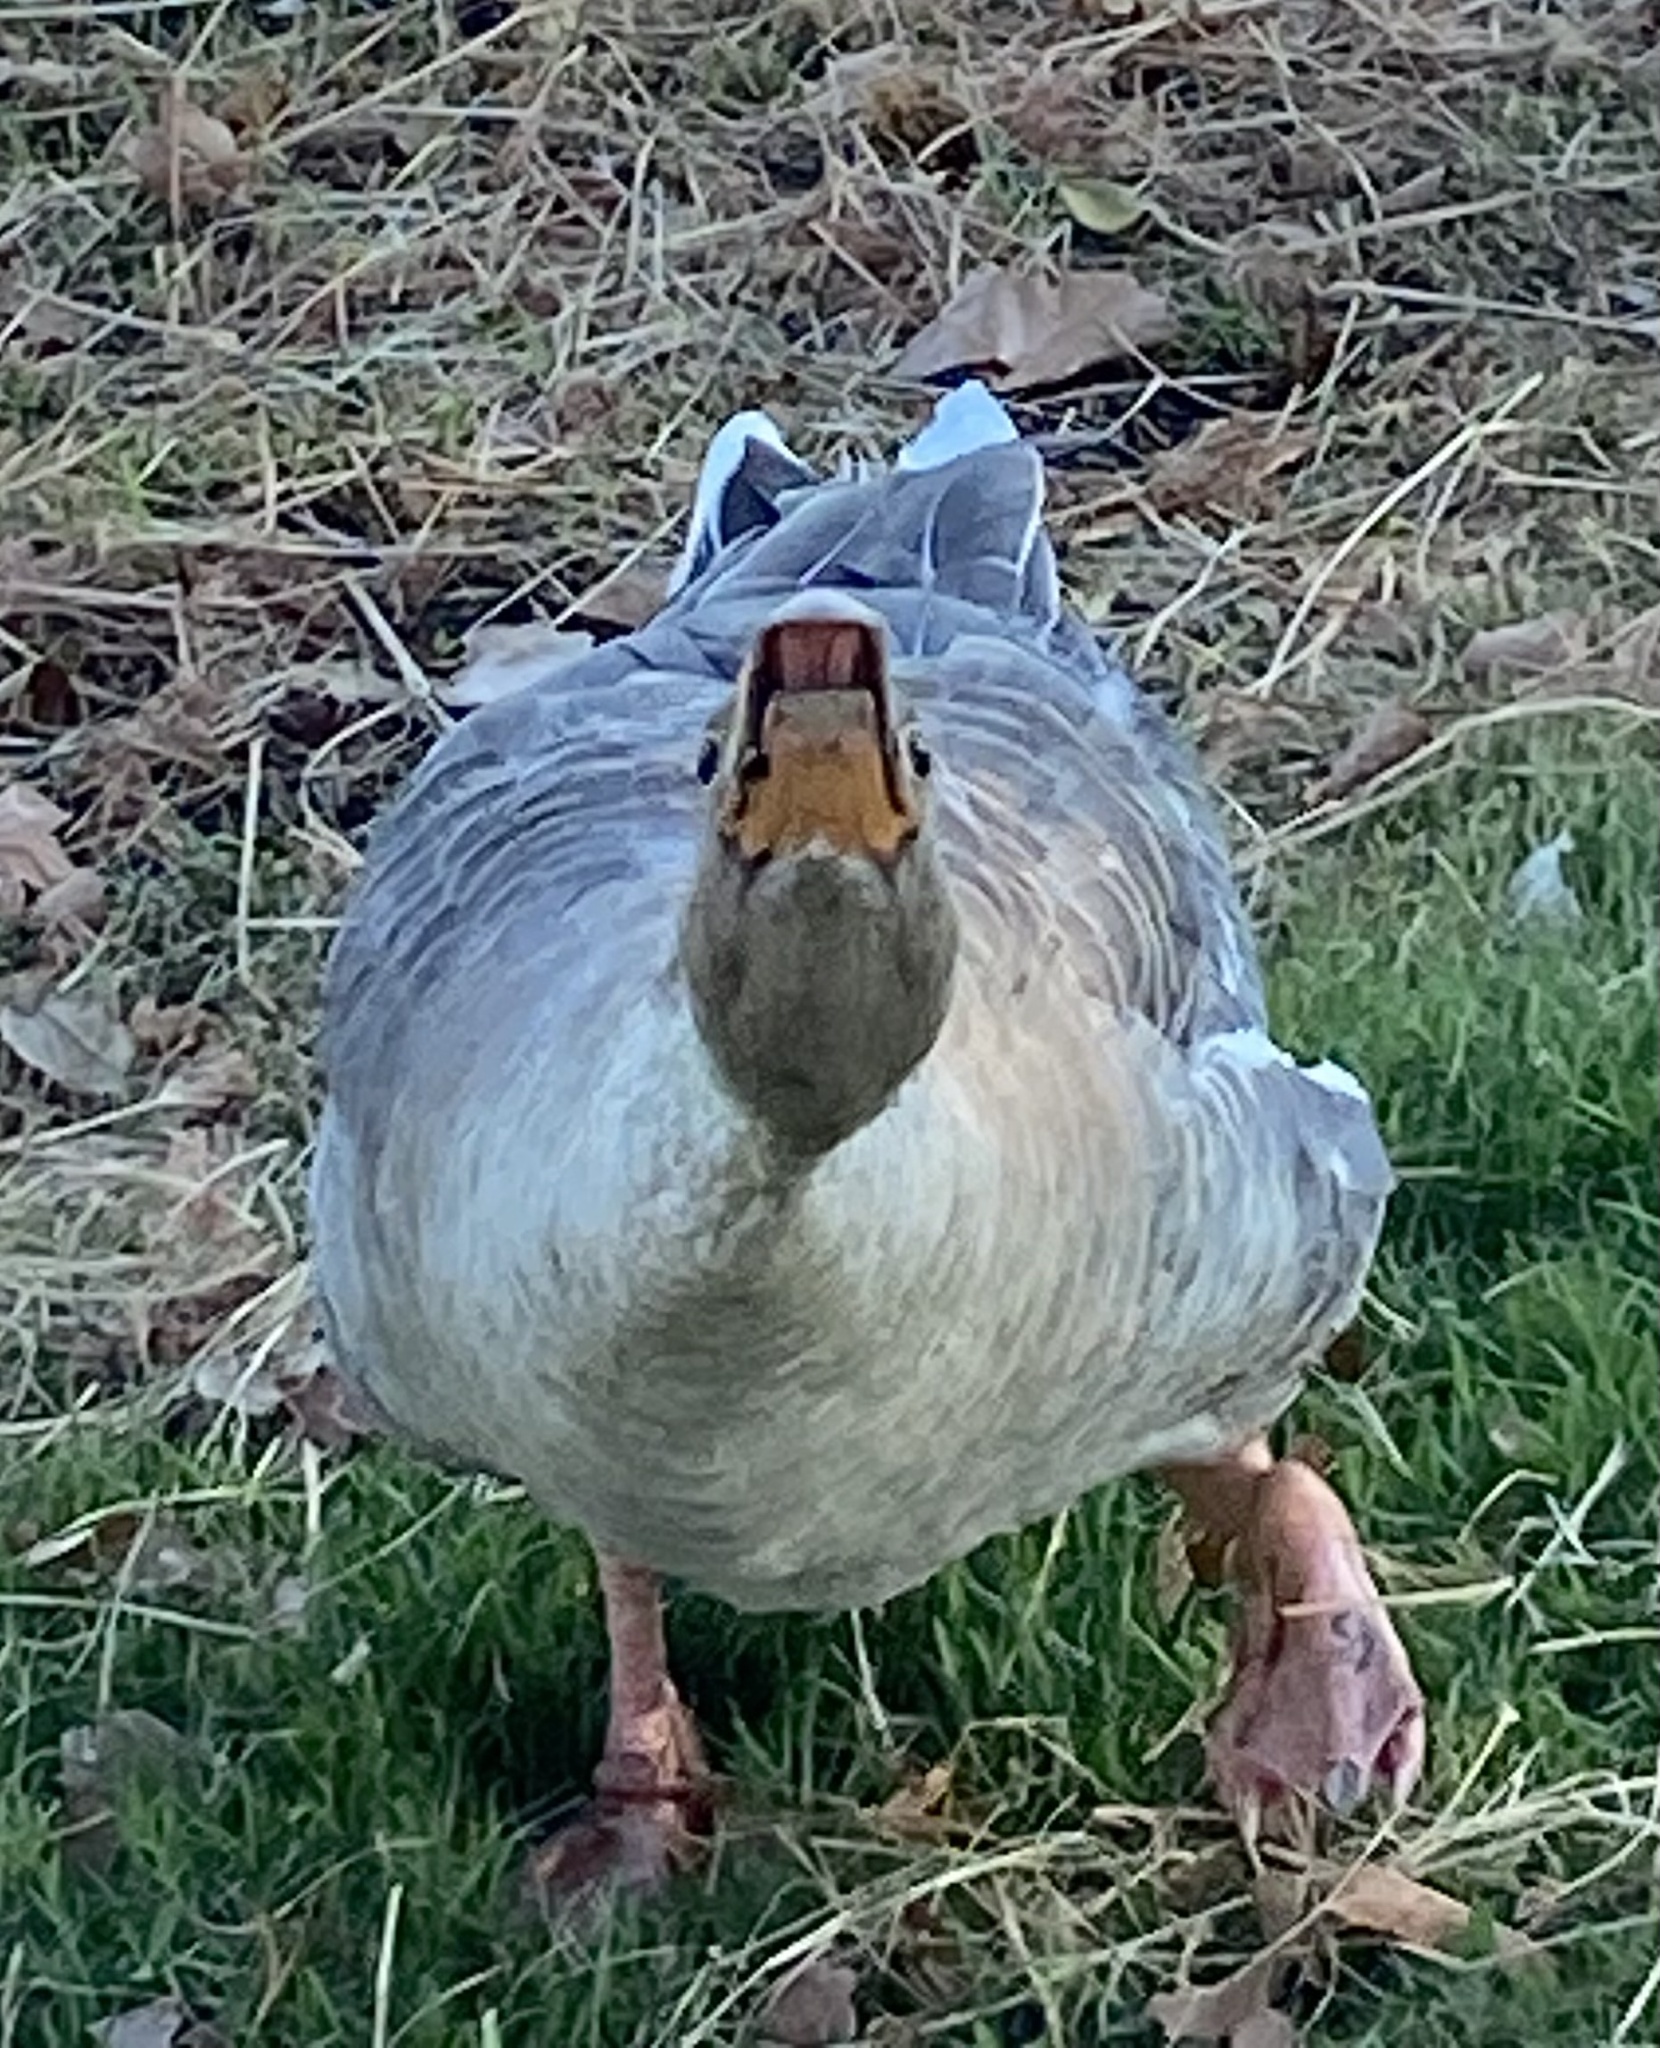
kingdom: Animalia
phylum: Chordata
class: Aves
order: Anseriformes
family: Anatidae
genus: Anser
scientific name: Anser cygnoides
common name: Swan goose
